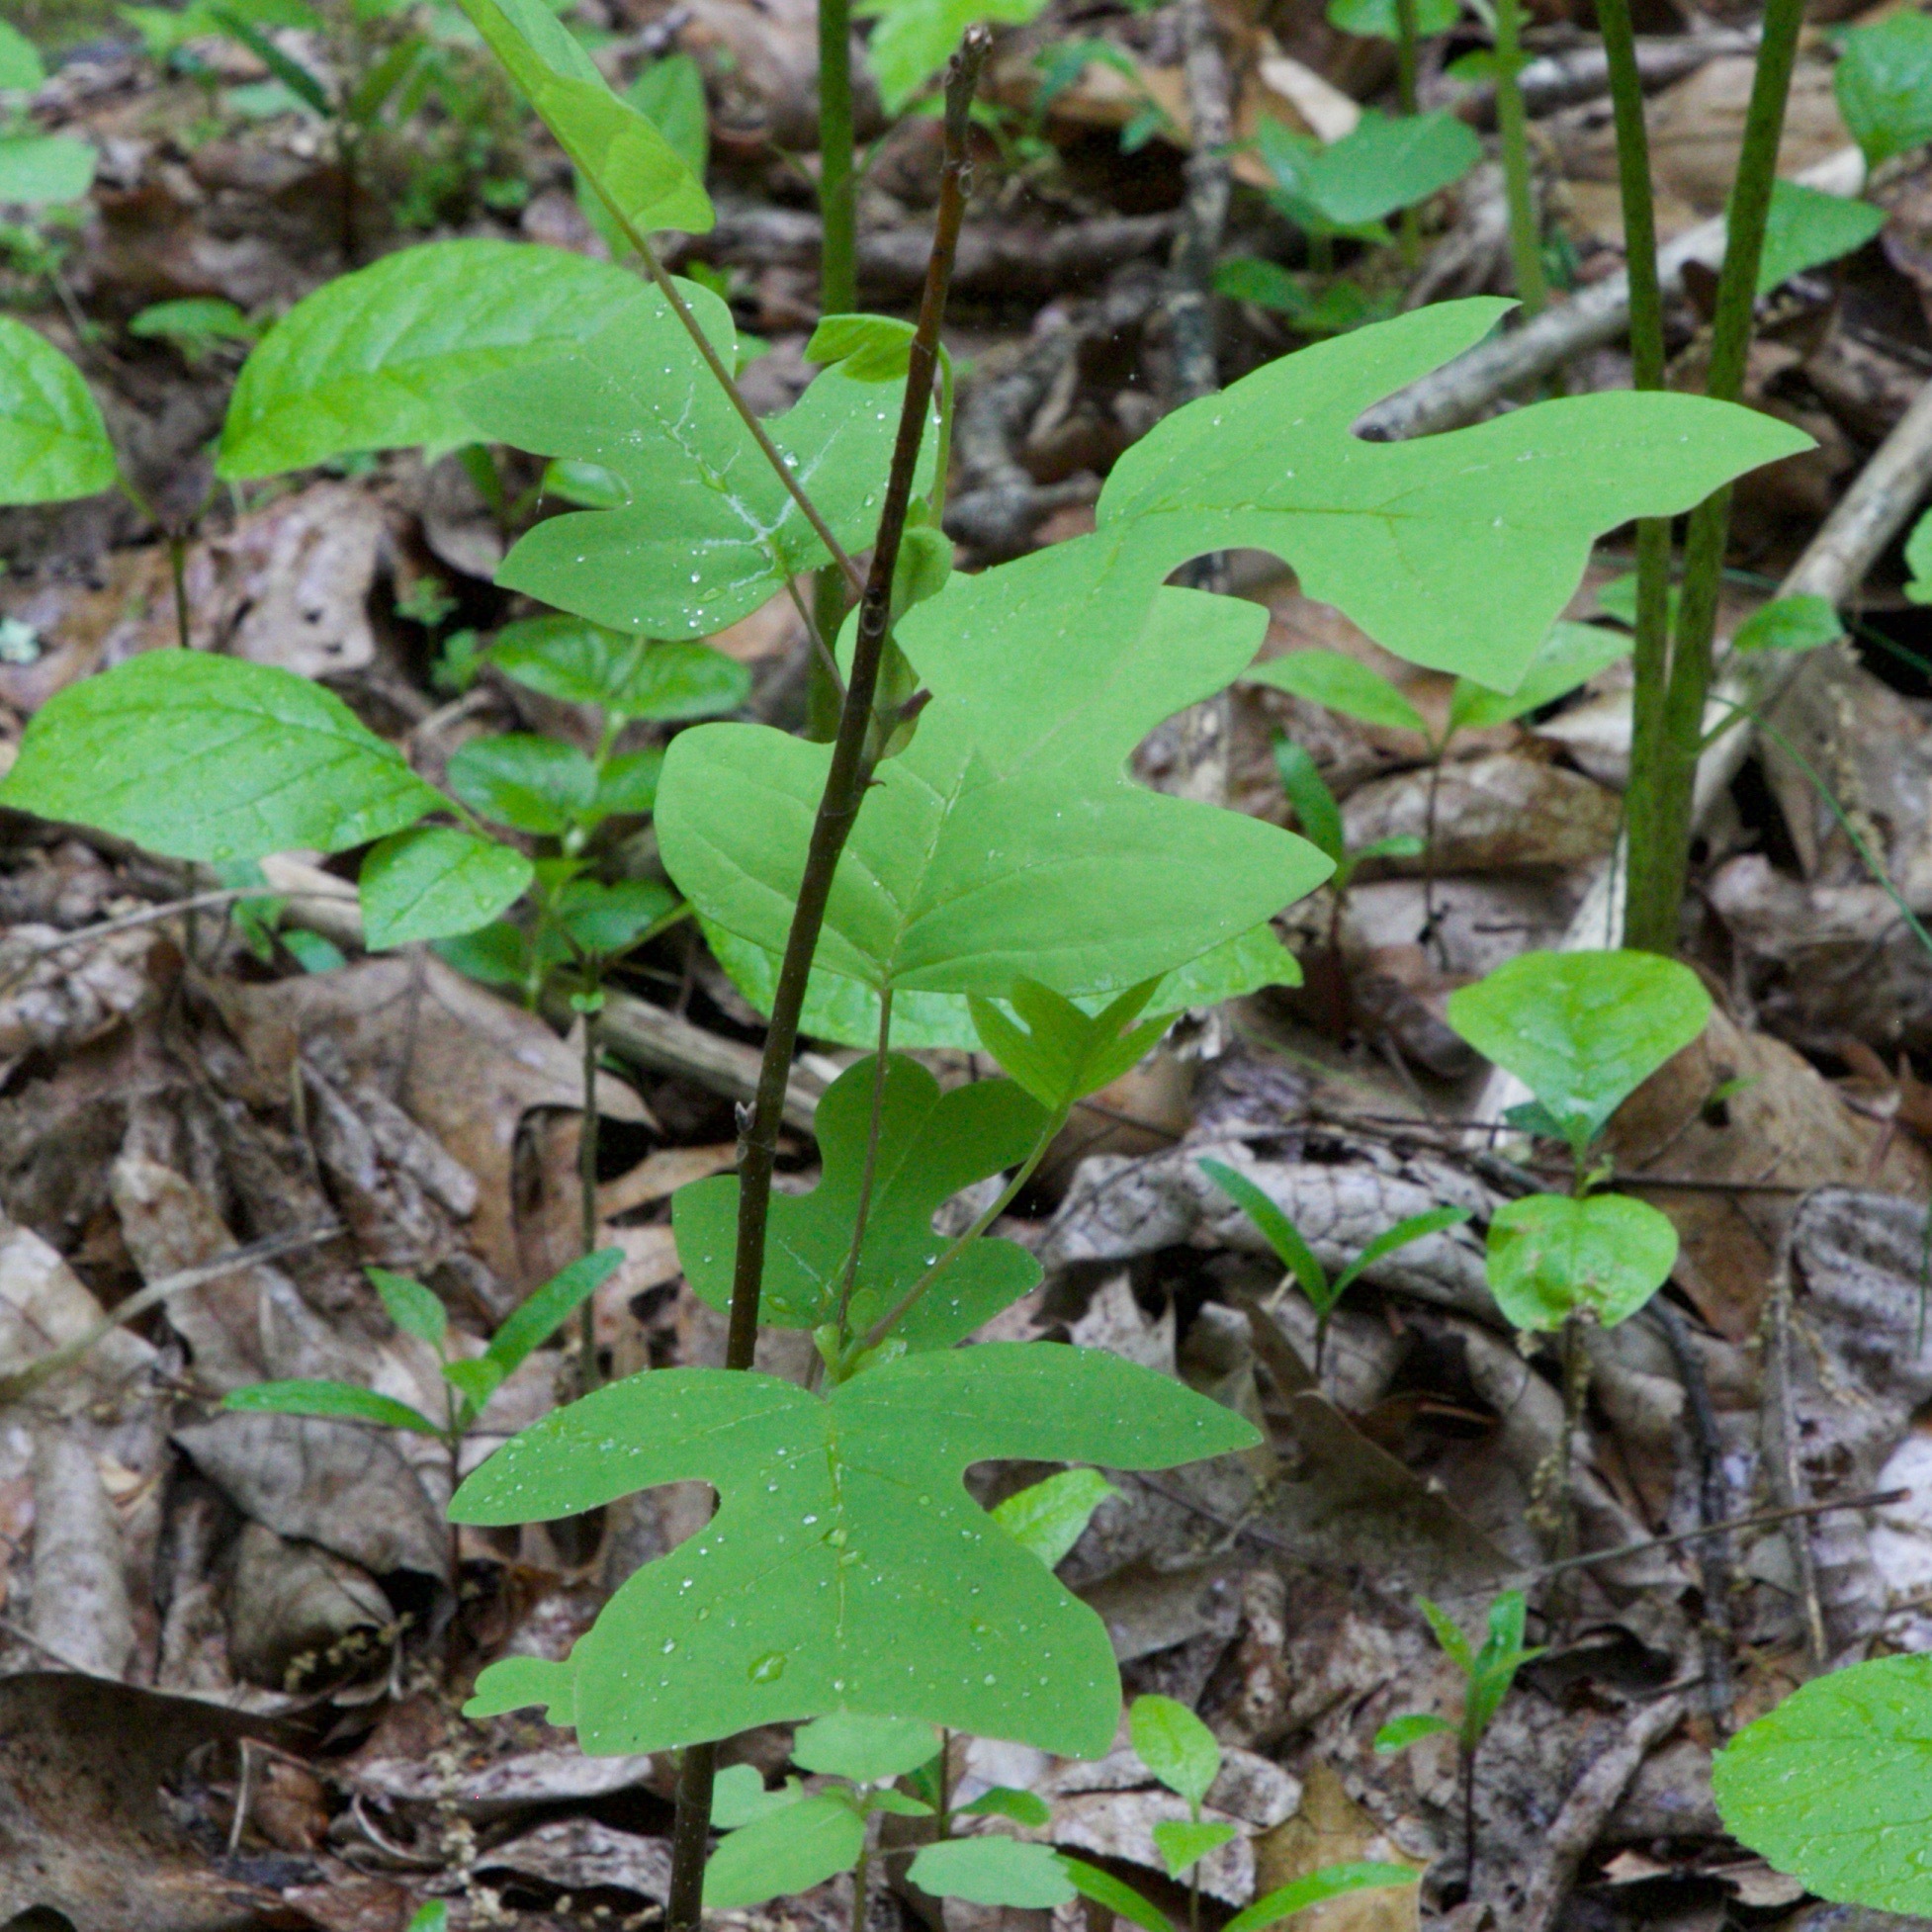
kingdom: Plantae
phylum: Tracheophyta
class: Magnoliopsida
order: Magnoliales
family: Magnoliaceae
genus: Liriodendron
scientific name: Liriodendron tulipifera
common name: Tulip tree
